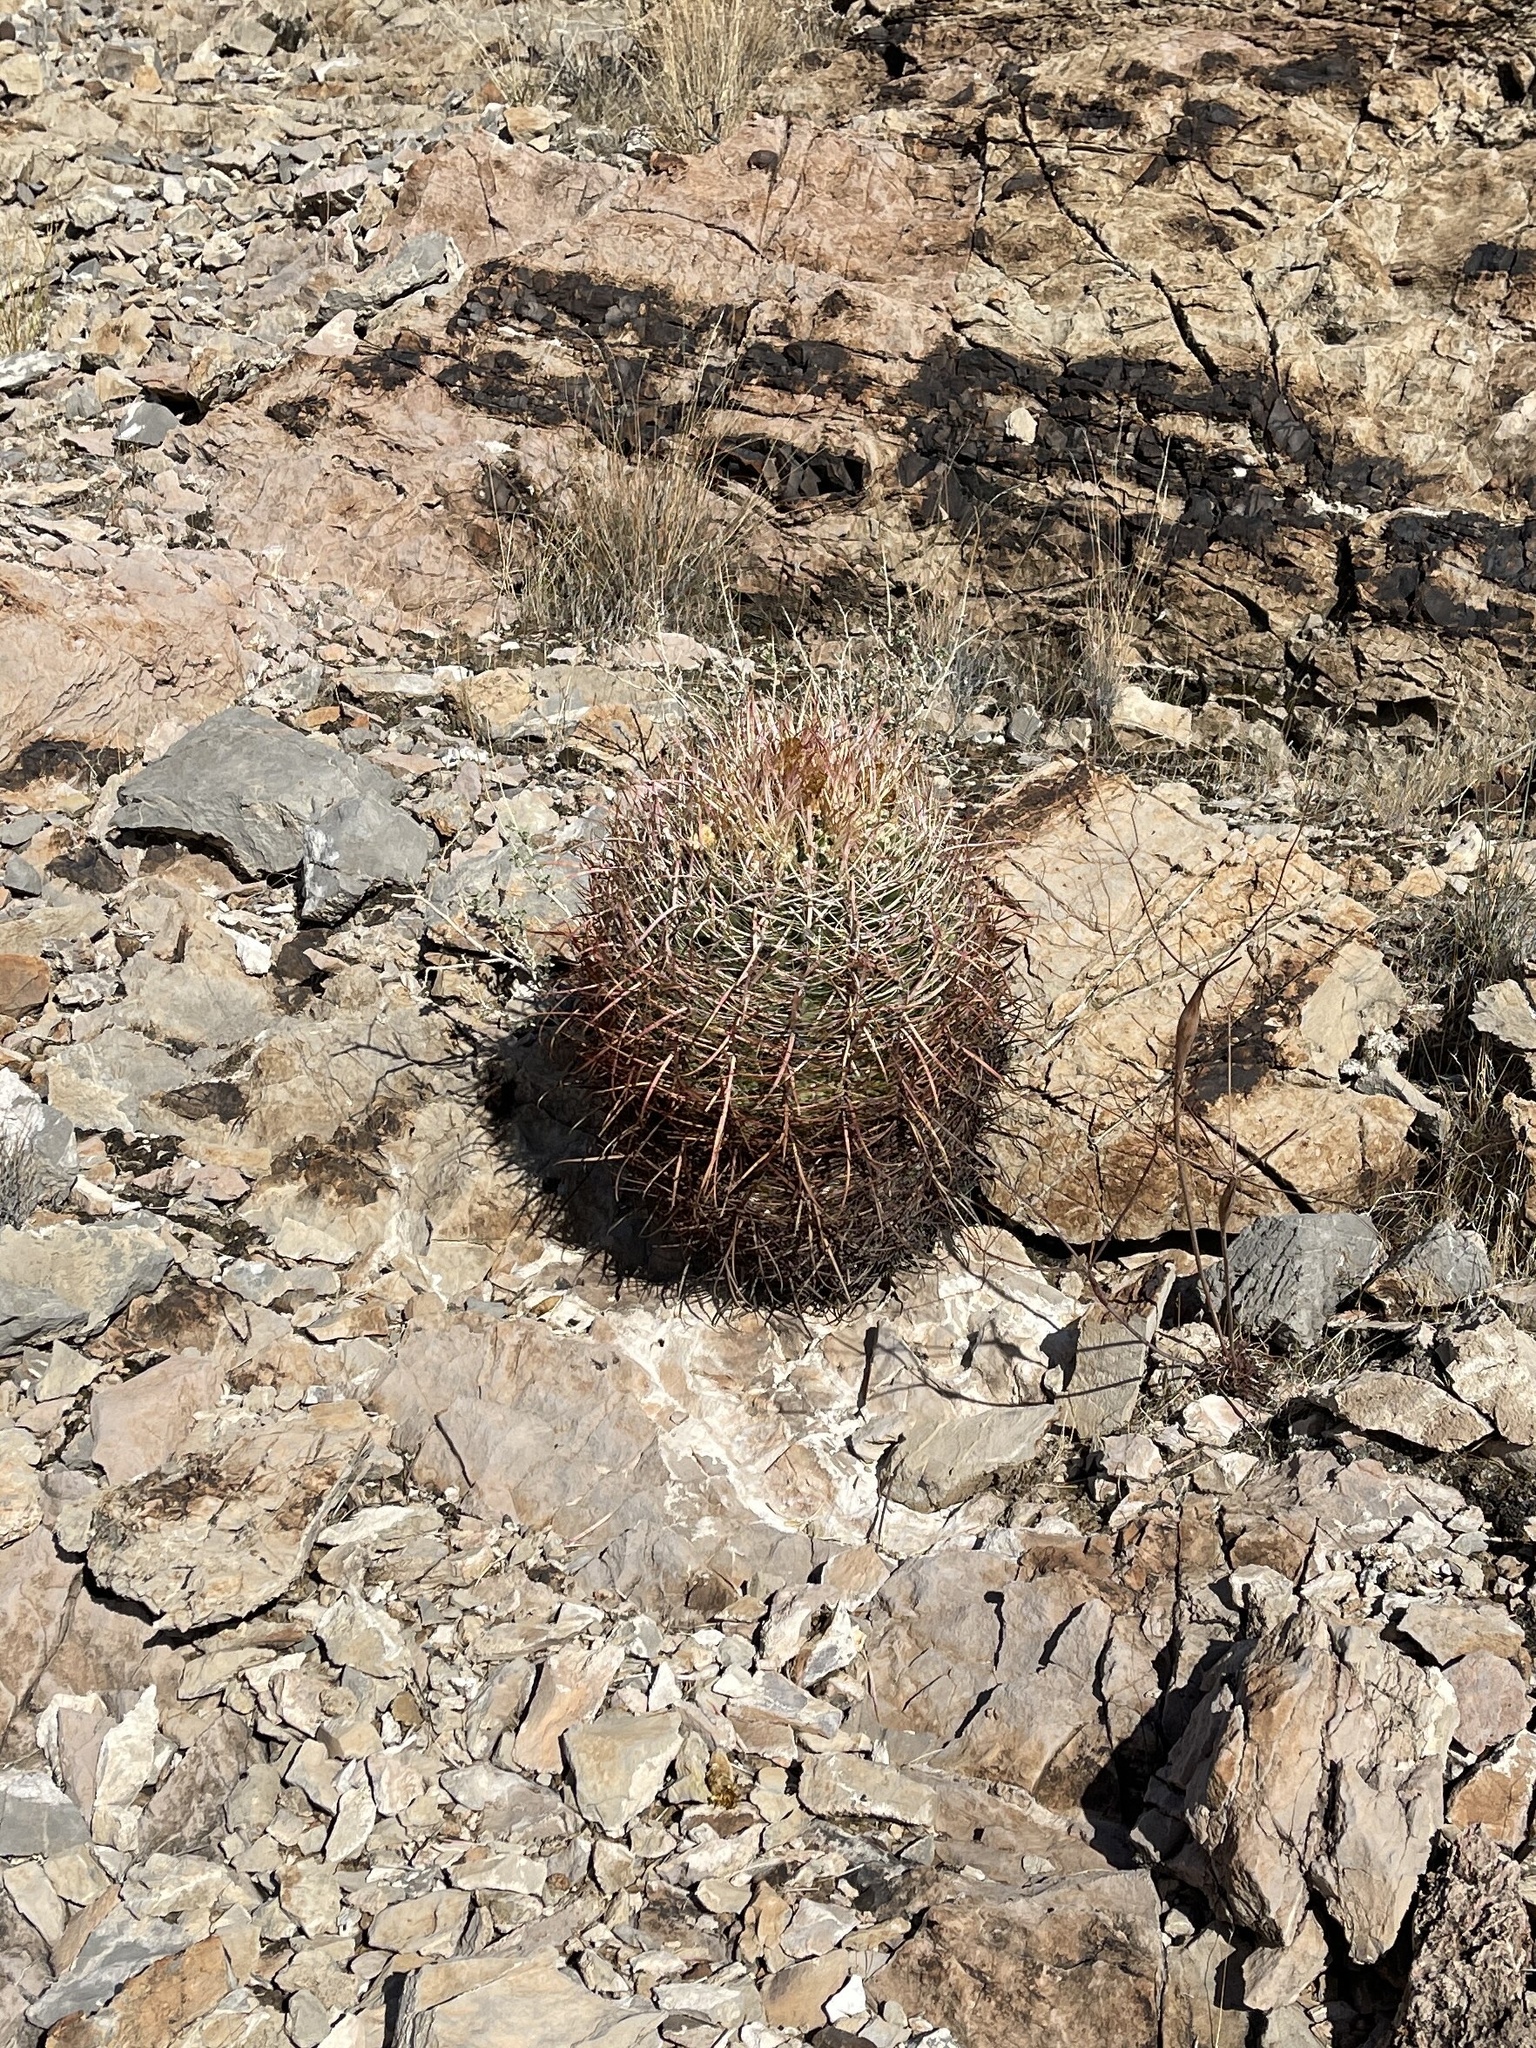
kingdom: Plantae
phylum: Tracheophyta
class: Magnoliopsida
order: Caryophyllales
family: Cactaceae
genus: Ferocactus
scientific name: Ferocactus cylindraceus
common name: California barrel cactus
